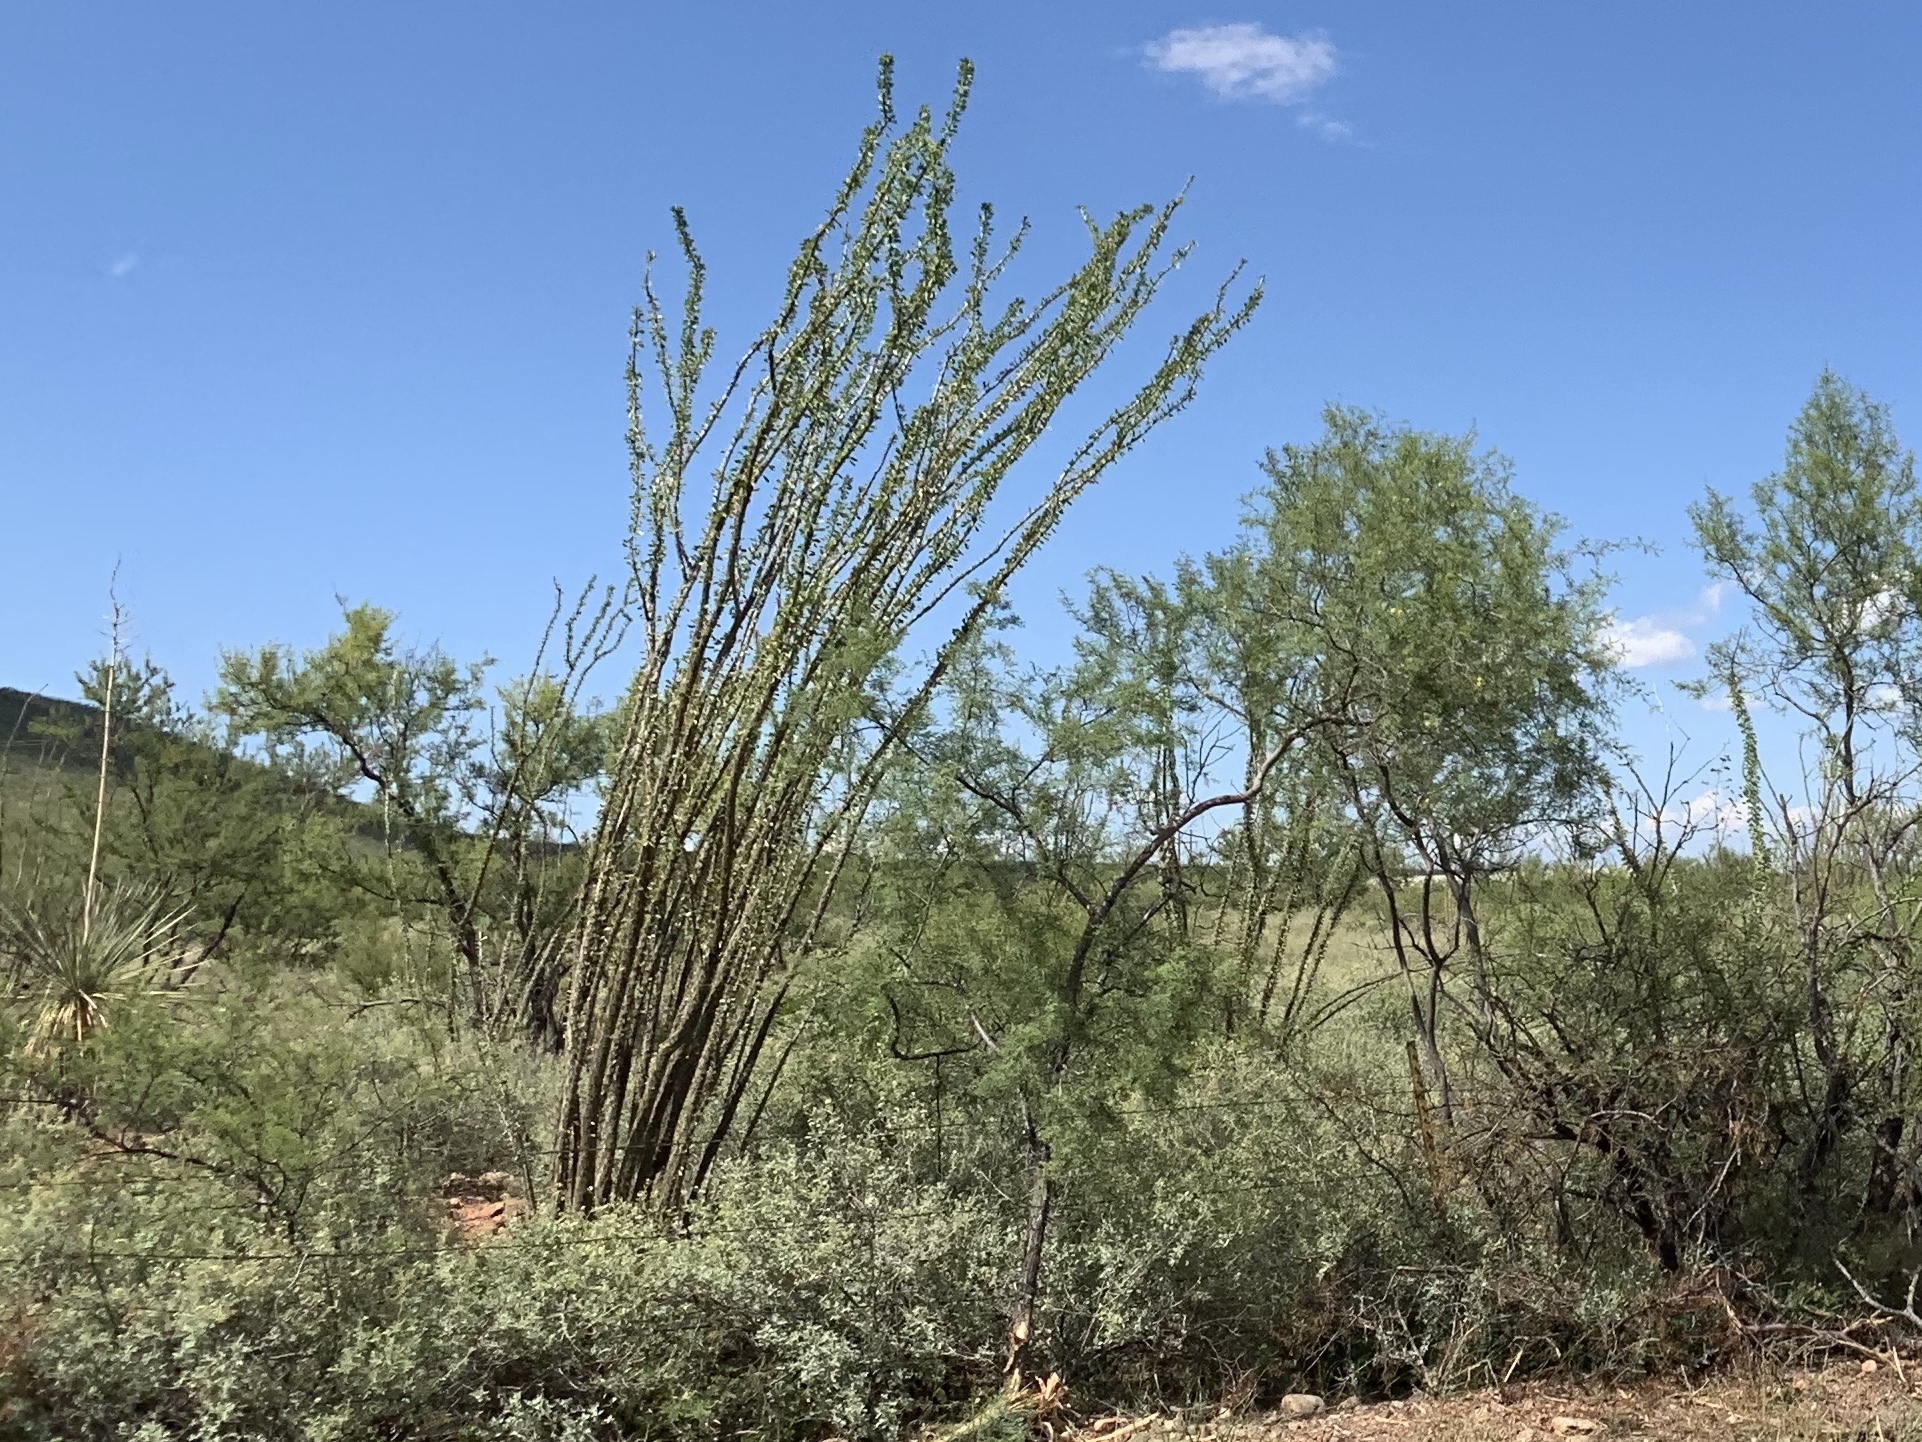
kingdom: Plantae
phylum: Tracheophyta
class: Magnoliopsida
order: Ericales
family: Fouquieriaceae
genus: Fouquieria
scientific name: Fouquieria splendens
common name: Vine-cactus
